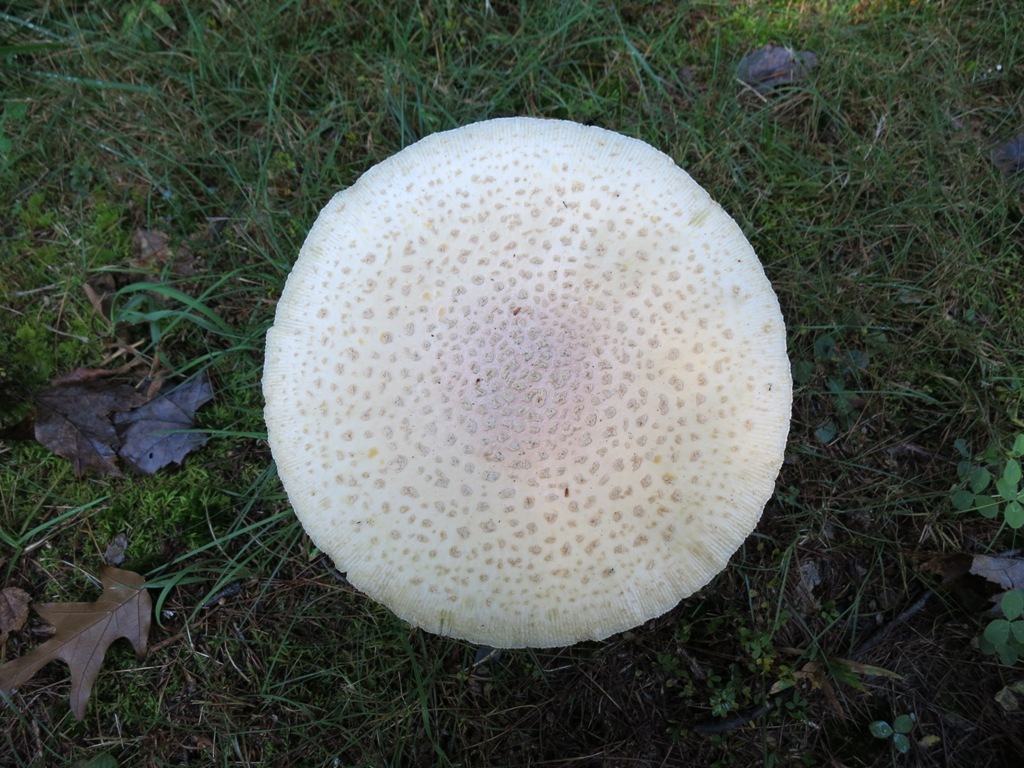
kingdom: Fungi
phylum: Basidiomycota
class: Agaricomycetes
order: Agaricales
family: Amanitaceae
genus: Amanita
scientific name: Amanita muscaria
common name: Fly agaric
